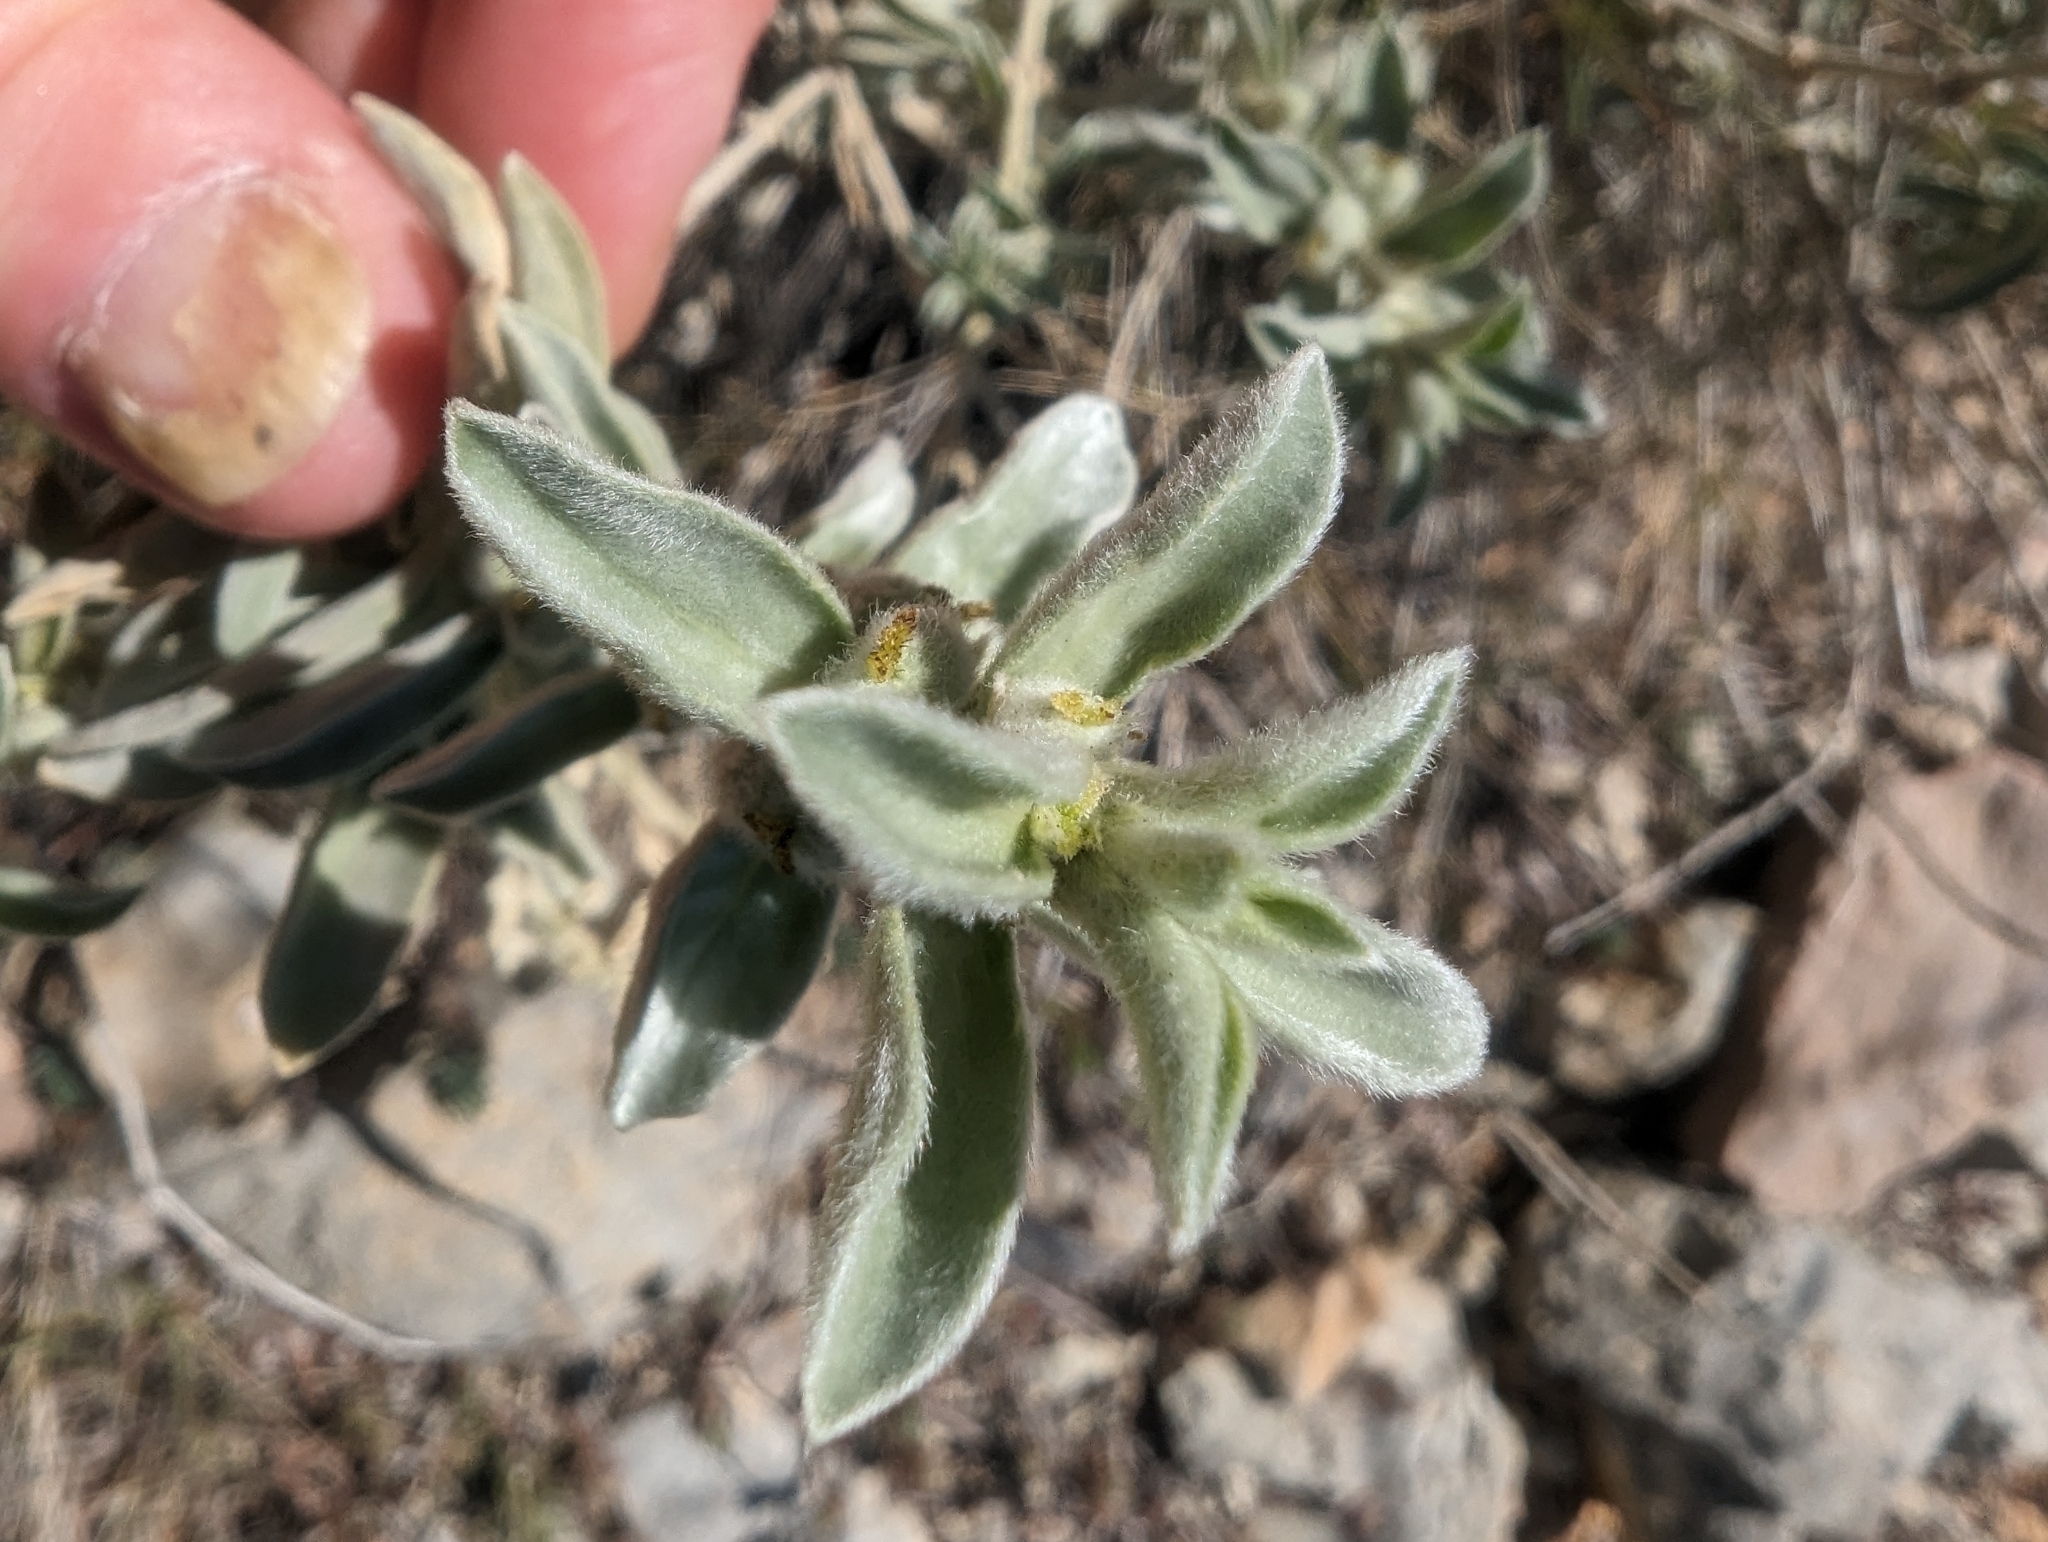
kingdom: Plantae
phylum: Tracheophyta
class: Magnoliopsida
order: Malpighiales
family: Euphorbiaceae
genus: Mercurialis
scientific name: Mercurialis tomentosa
